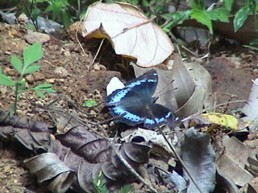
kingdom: Animalia
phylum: Arthropoda
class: Insecta
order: Lepidoptera
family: Nymphalidae
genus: Vanessa
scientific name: Vanessa Kaniska canace
